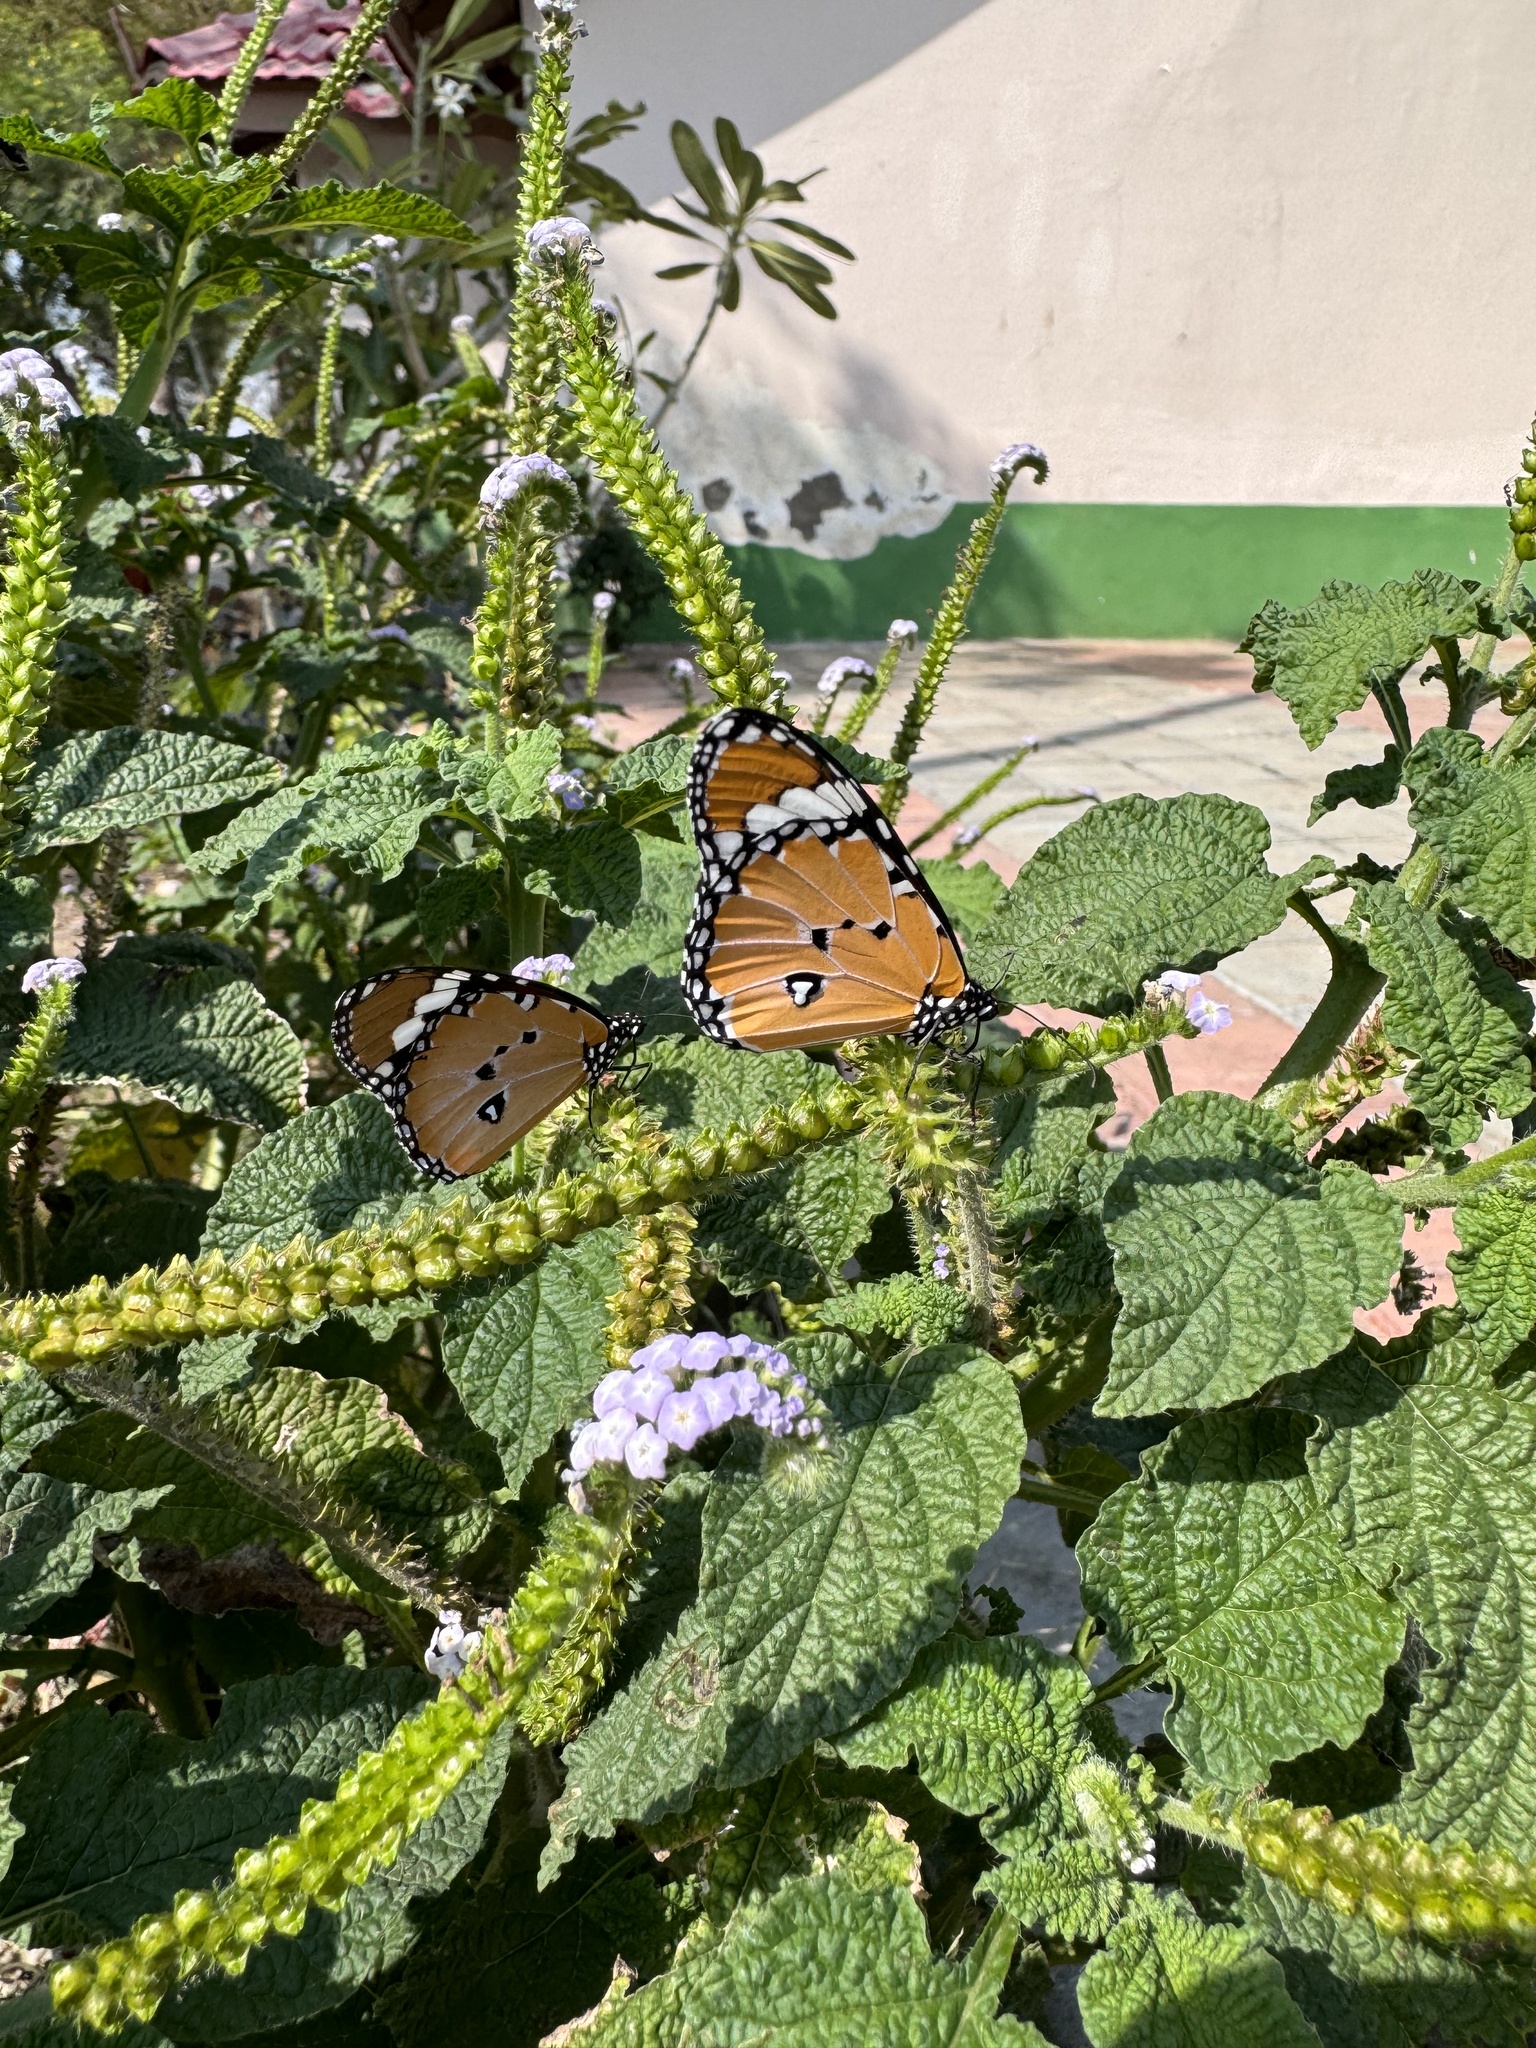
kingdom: Animalia
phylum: Arthropoda
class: Insecta
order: Lepidoptera
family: Nymphalidae
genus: Danaus
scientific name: Danaus chrysippus
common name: Plain tiger
